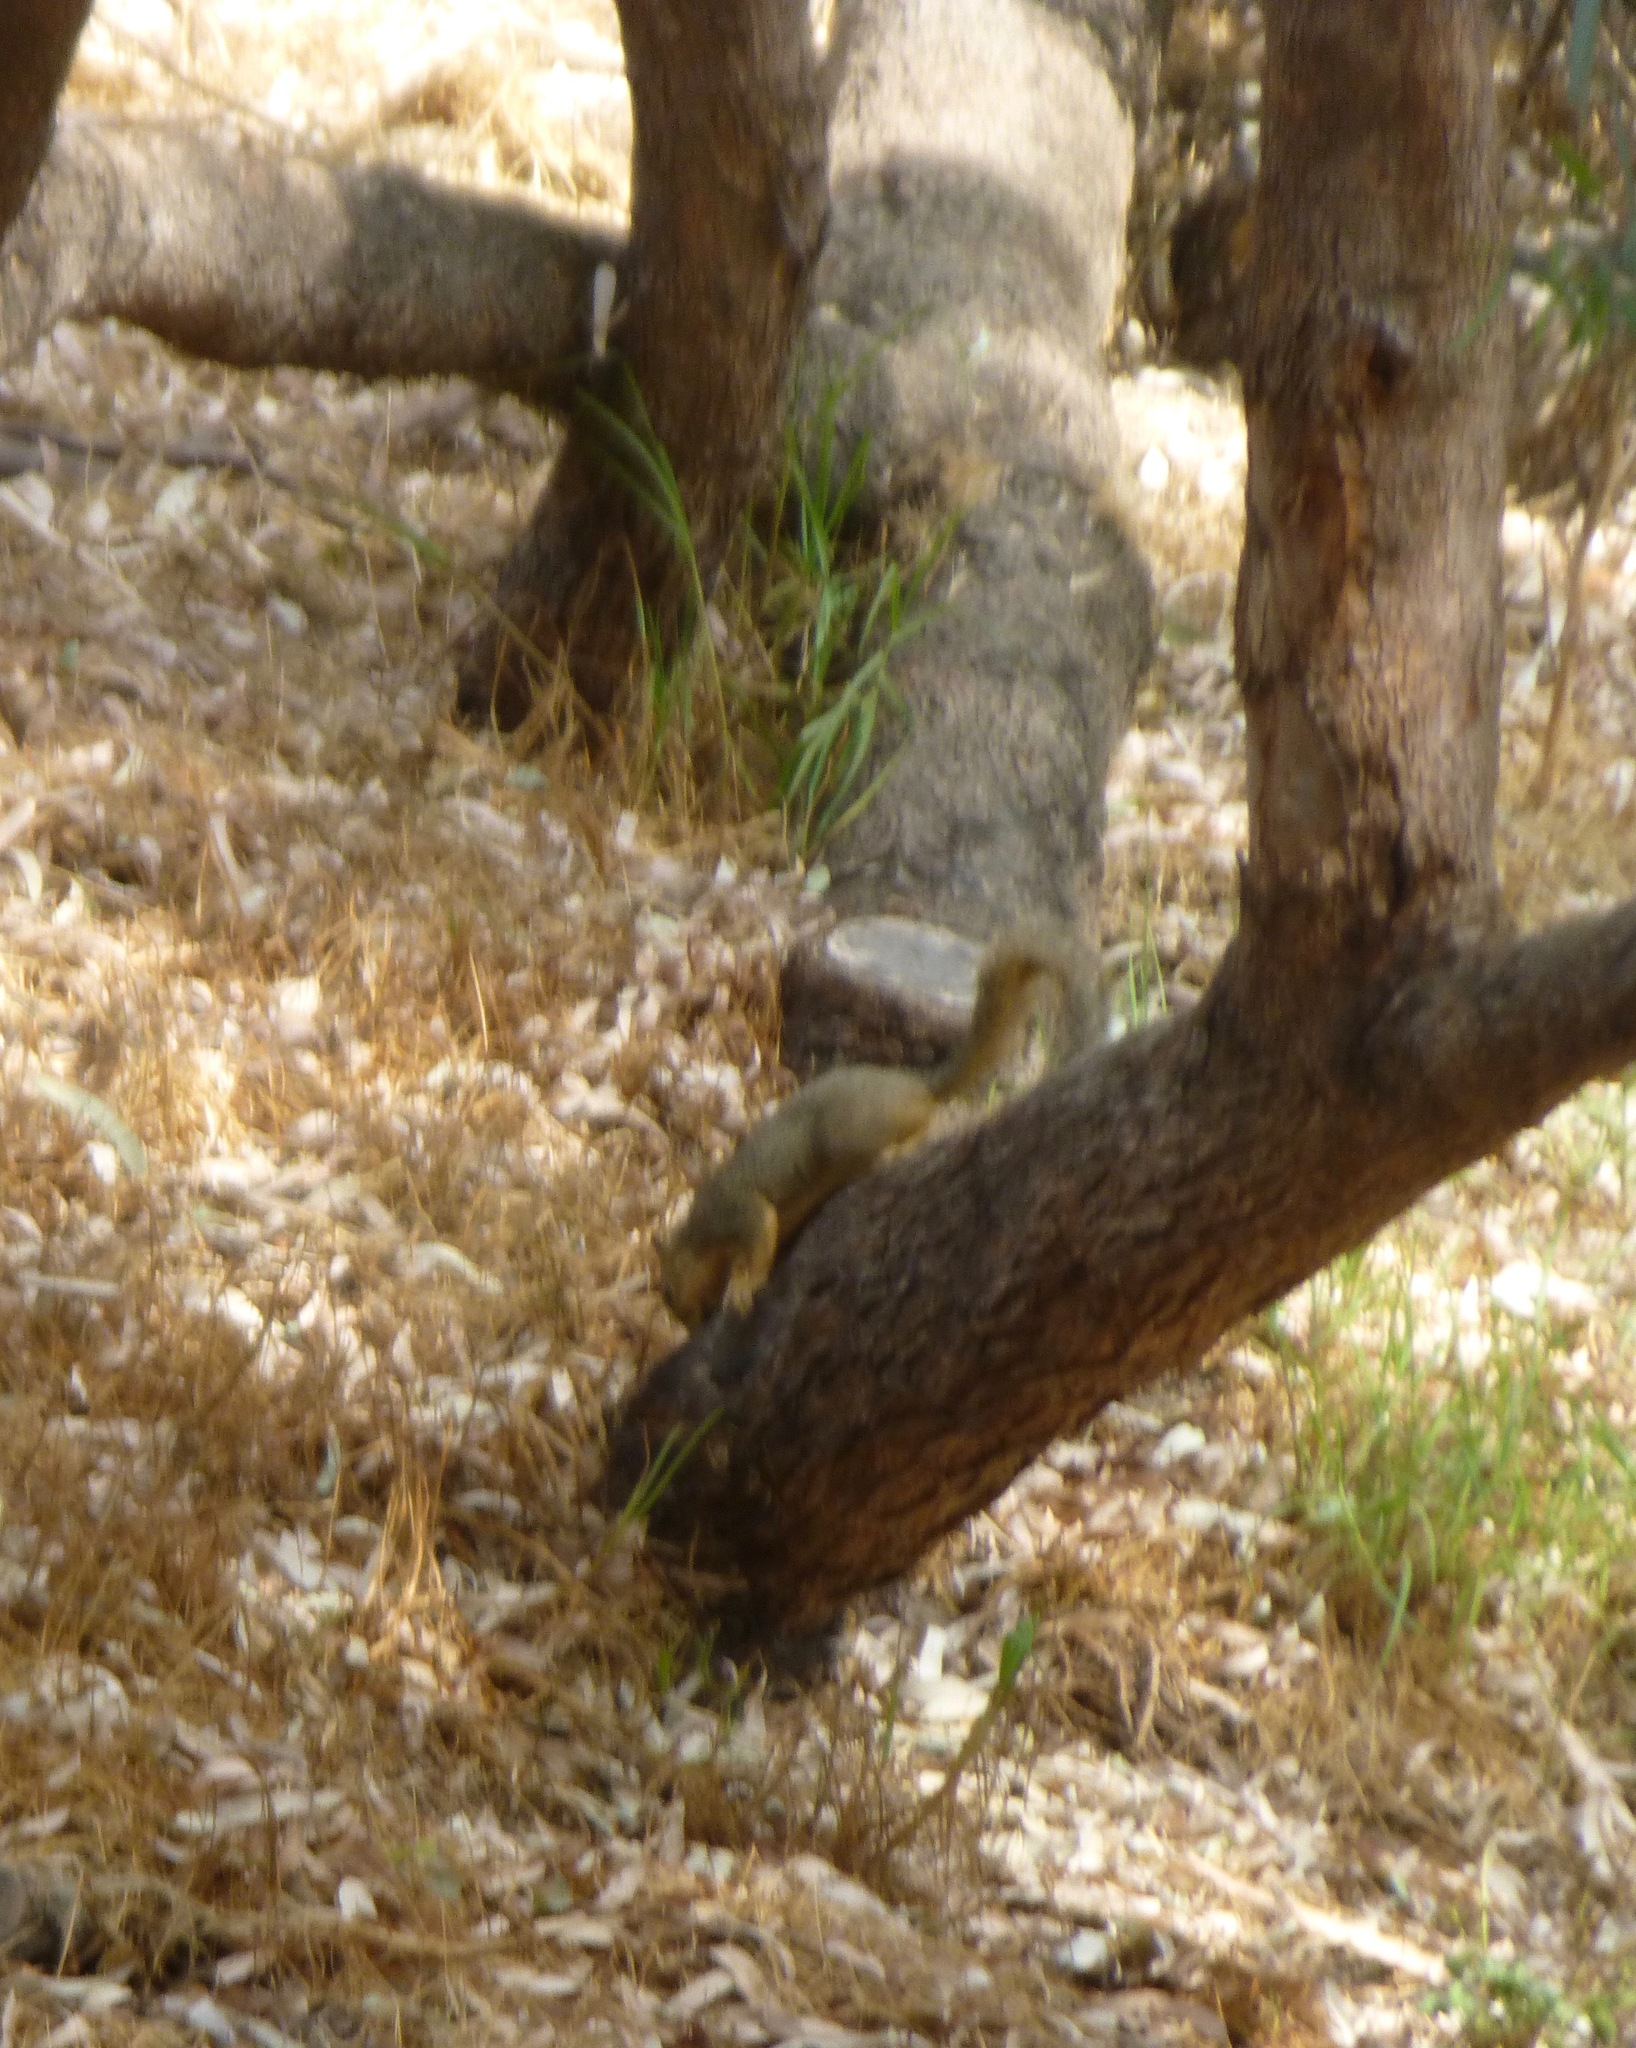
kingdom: Animalia
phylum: Chordata
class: Mammalia
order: Rodentia
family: Sciuridae
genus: Sciurus
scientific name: Sciurus niger
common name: Fox squirrel
